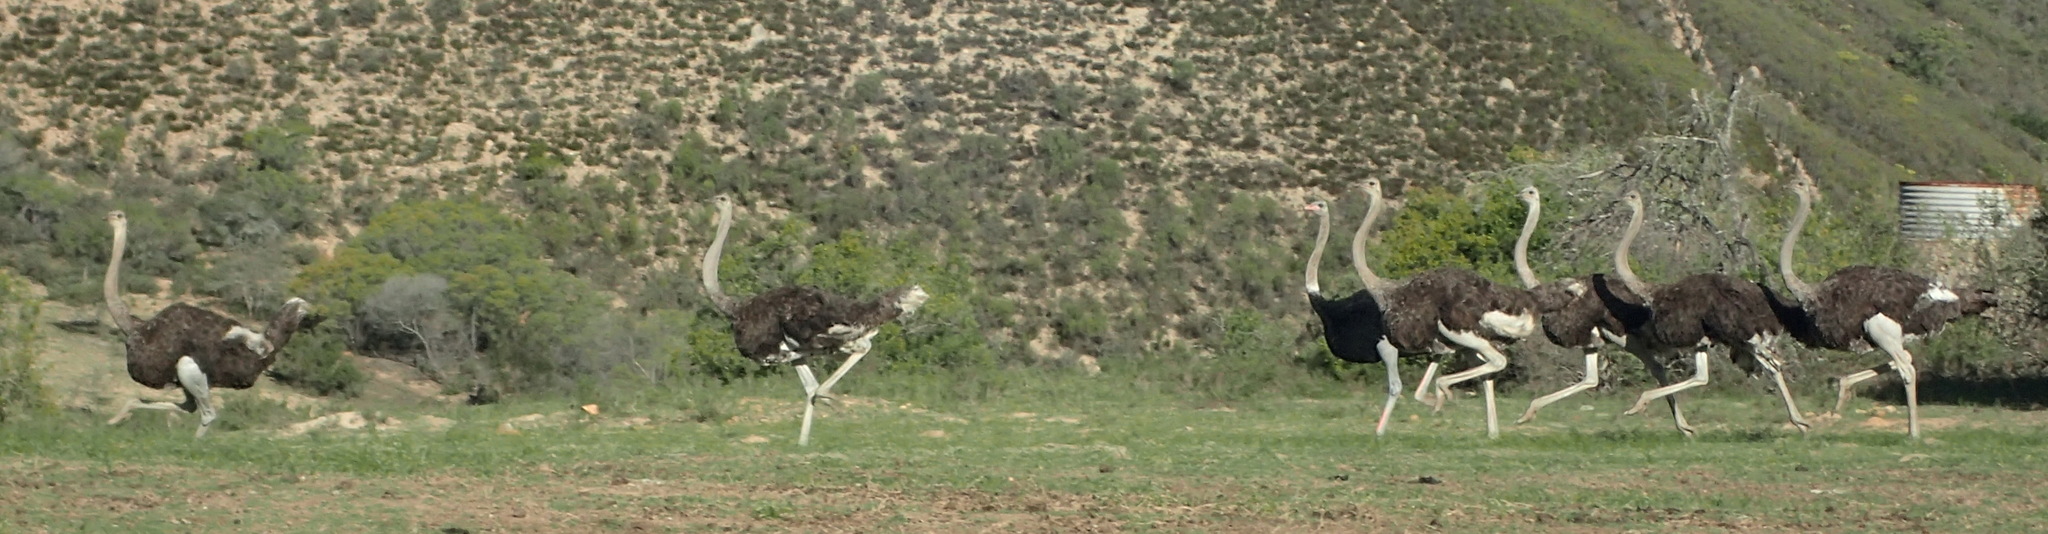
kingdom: Animalia
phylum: Chordata
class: Aves
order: Struthioniformes
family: Struthionidae
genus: Struthio
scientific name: Struthio camelus
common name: Common ostrich
